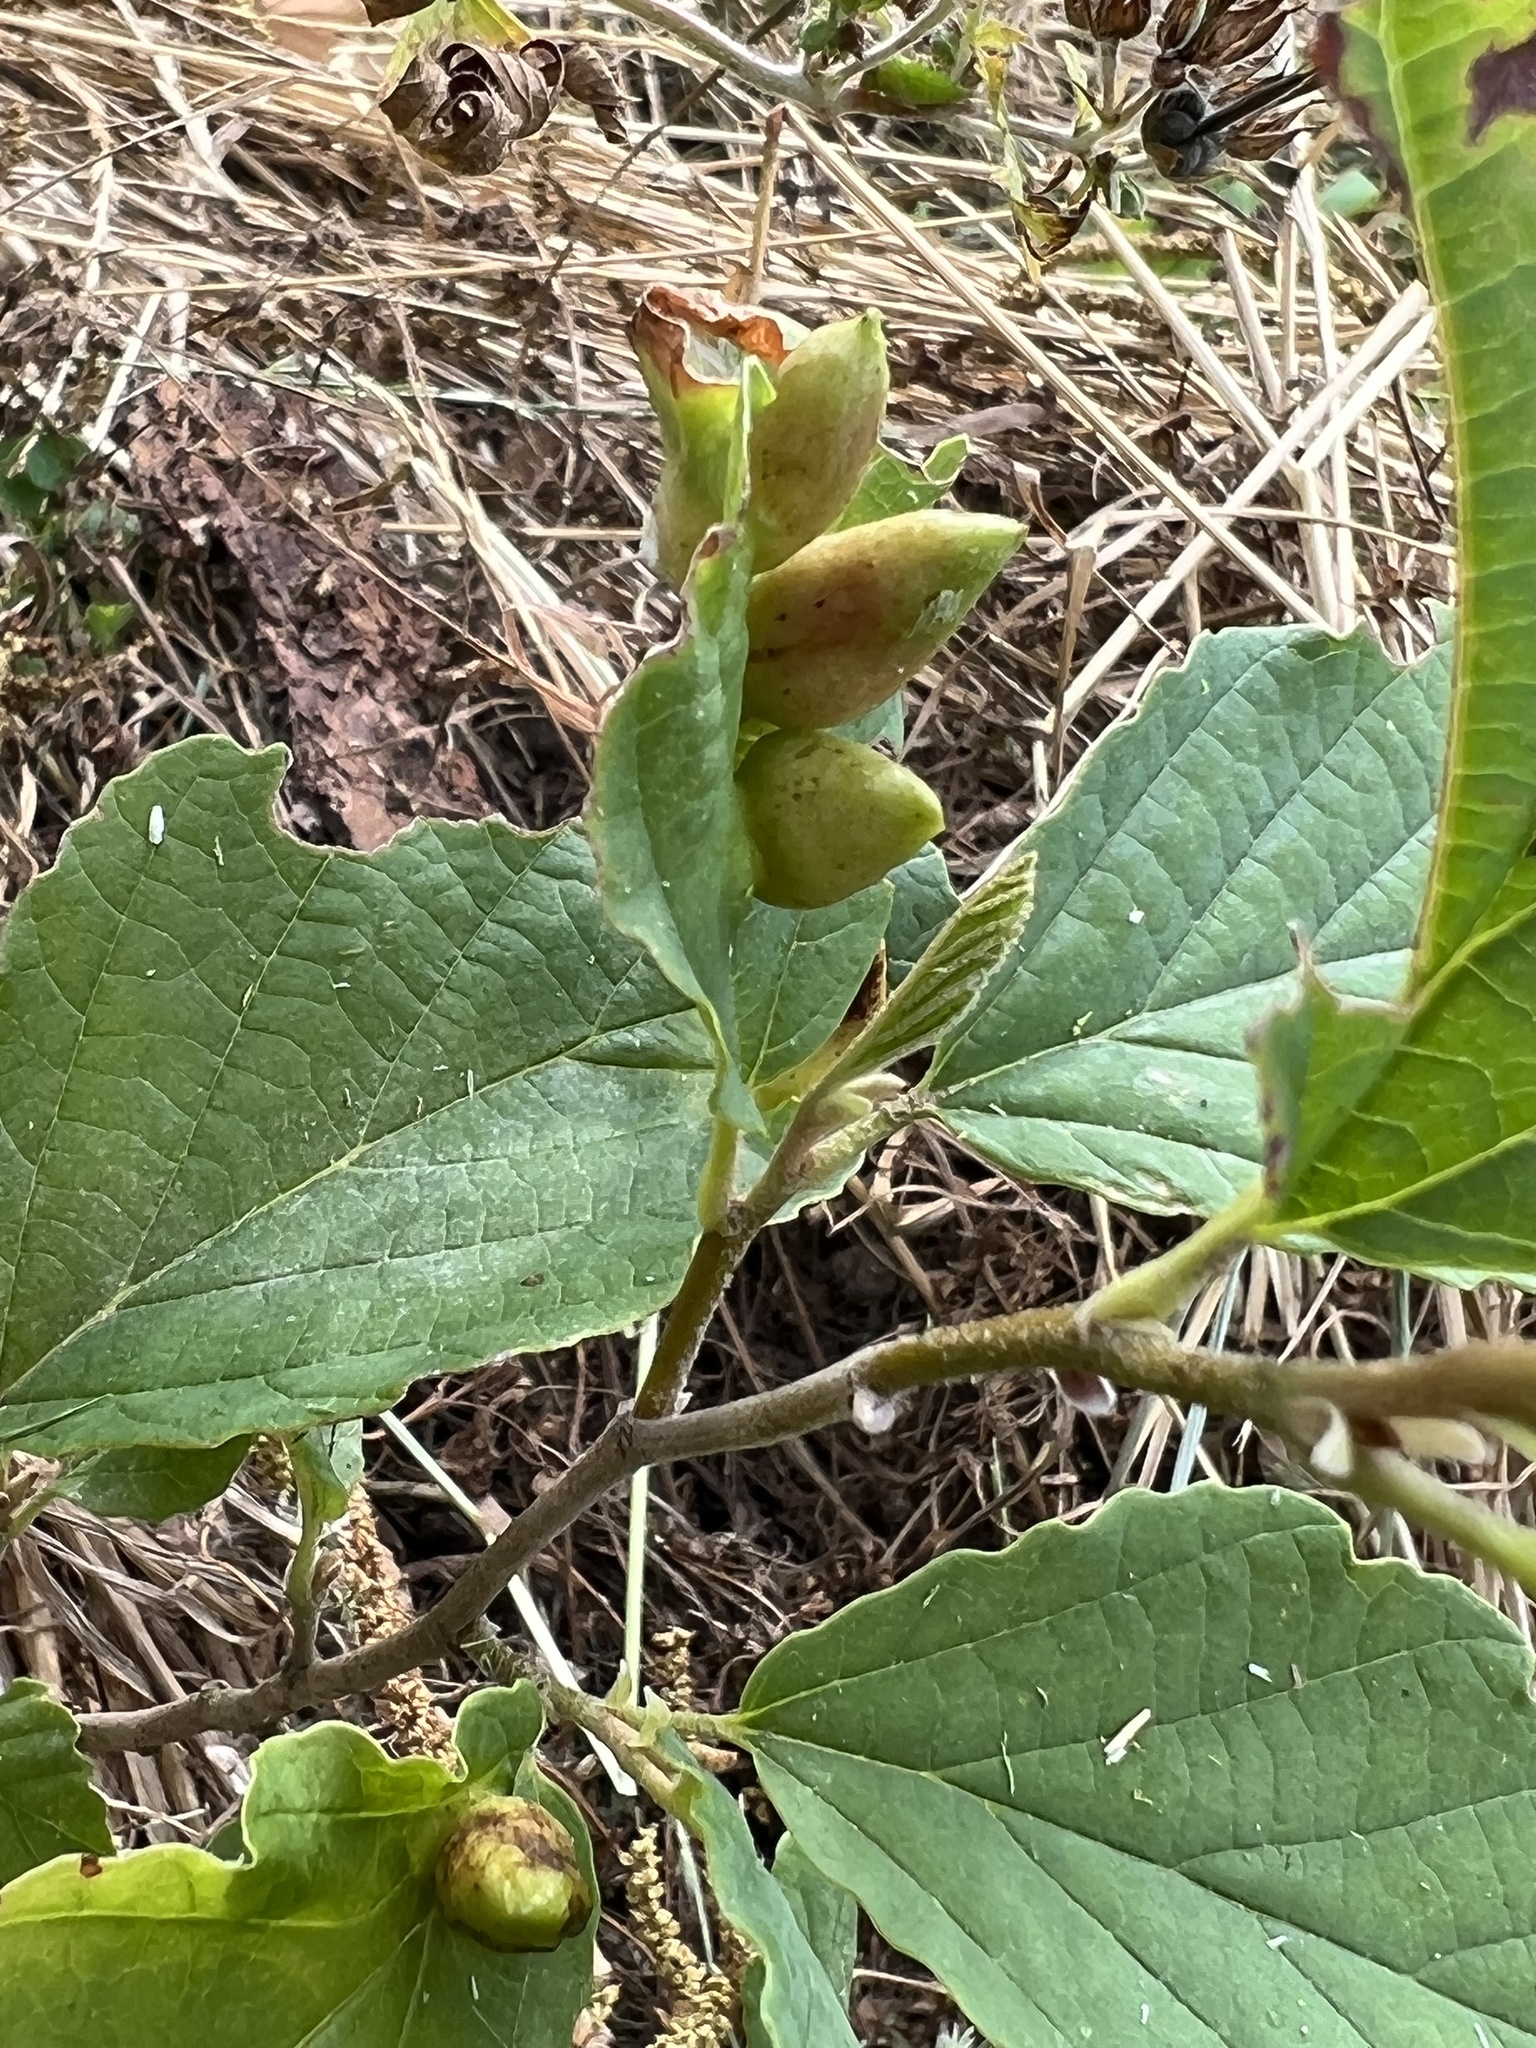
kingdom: Animalia
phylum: Arthropoda
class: Insecta
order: Hemiptera
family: Aphididae
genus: Hormaphis
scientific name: Hormaphis hamamelidis
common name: Witch-hazel cone gall aphid
